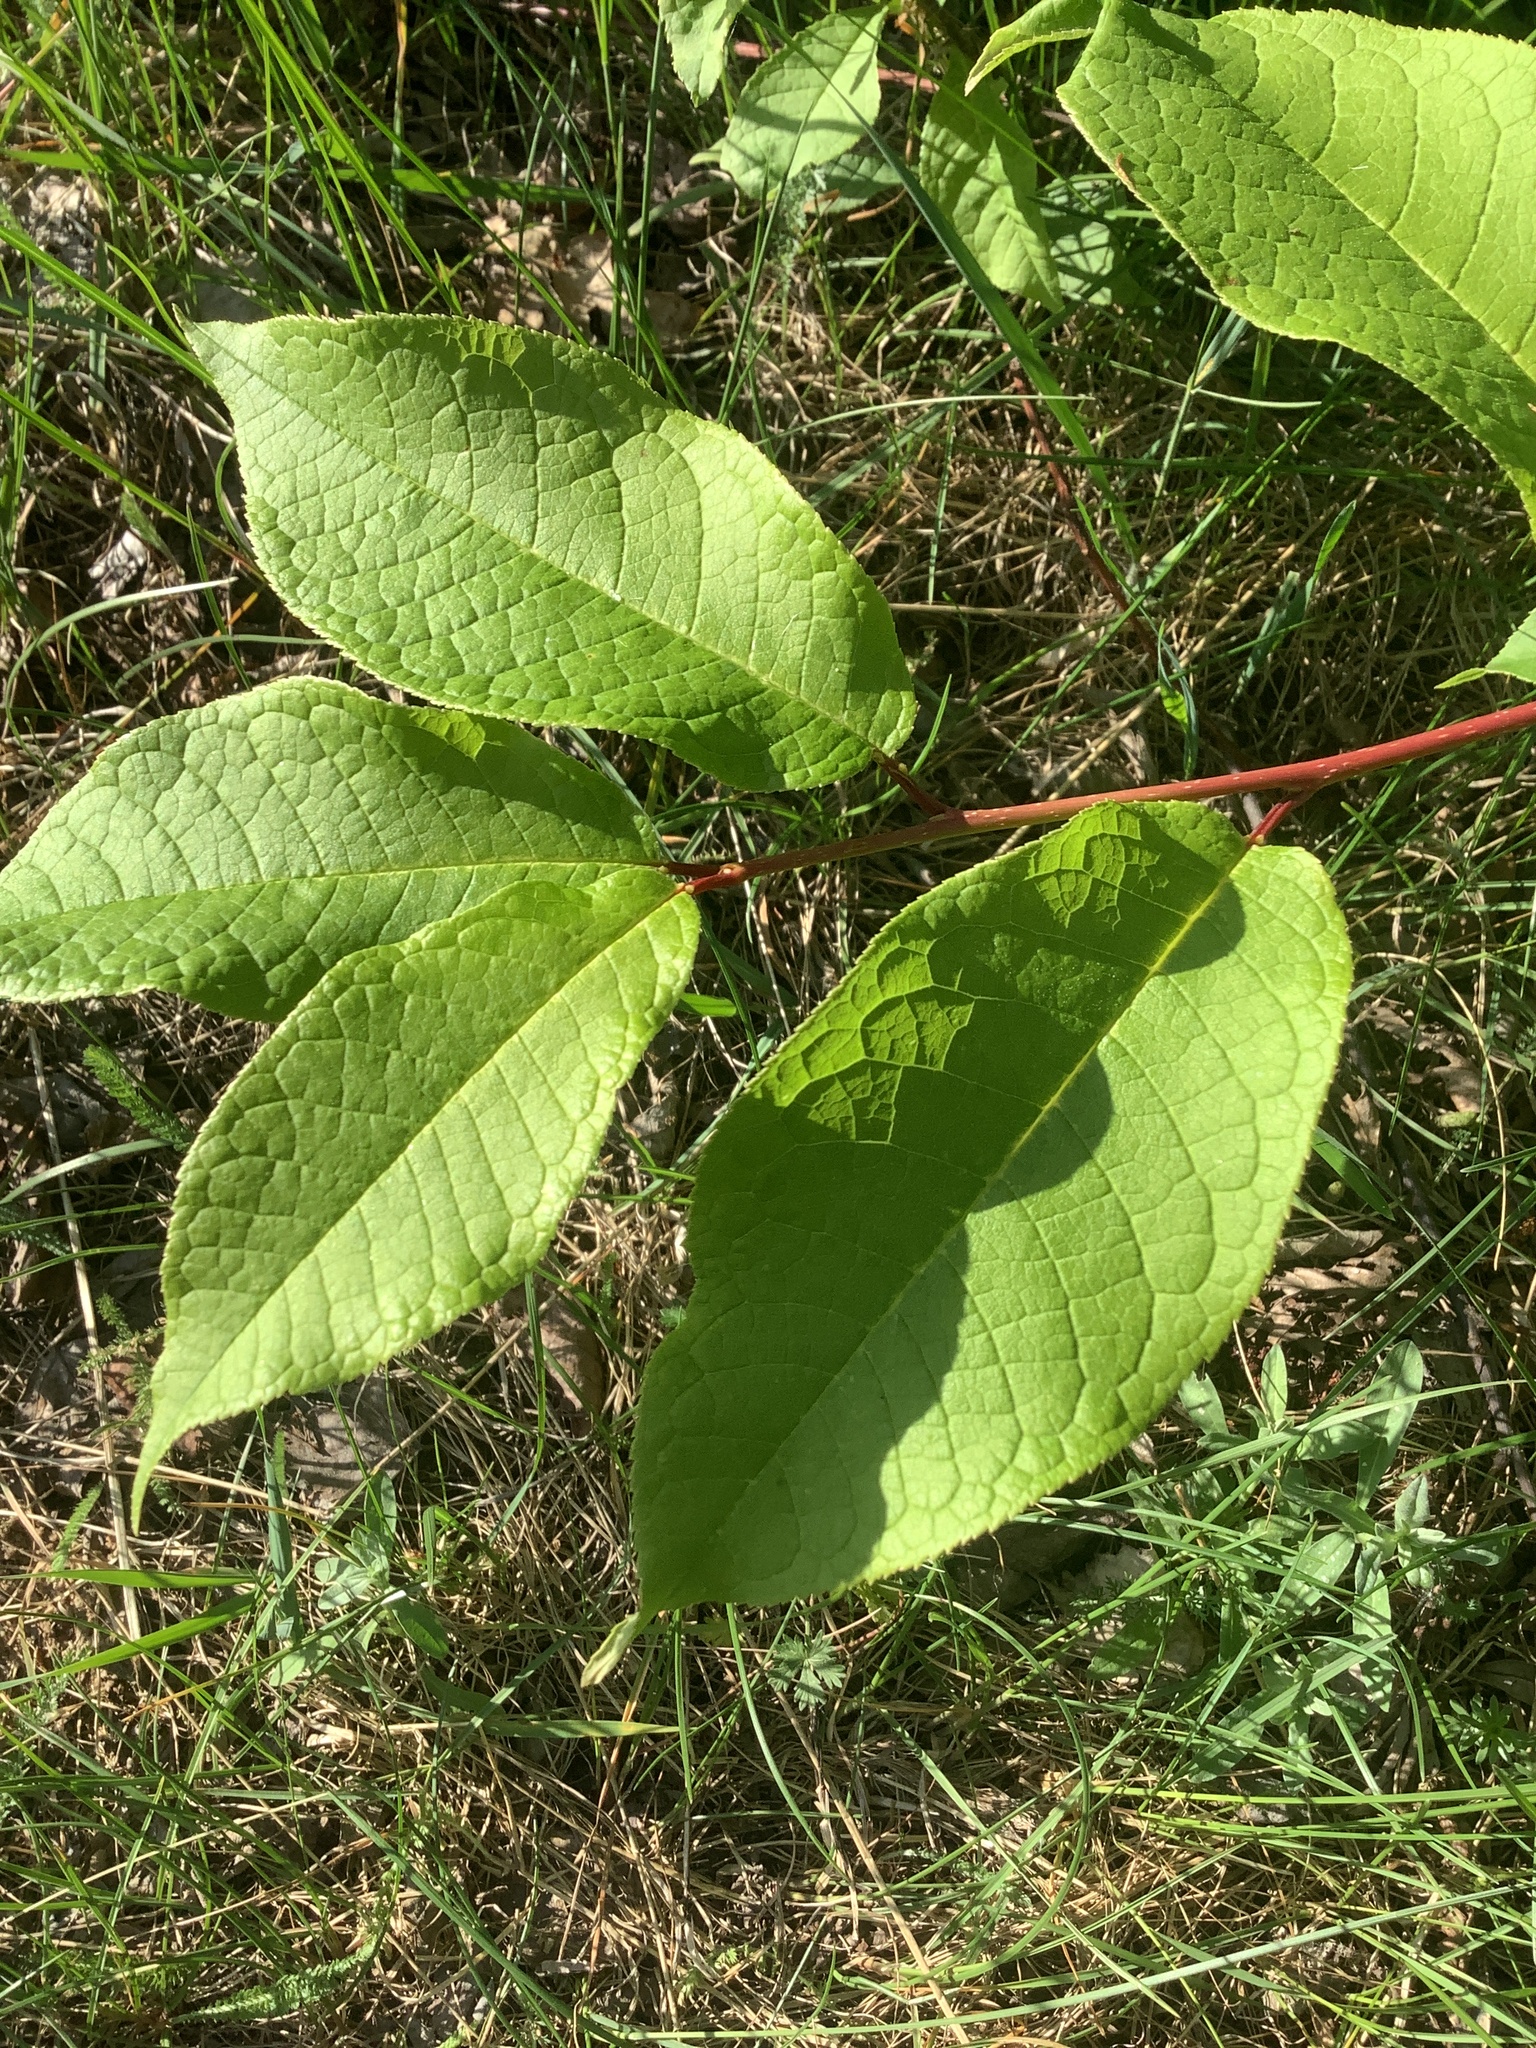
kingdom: Plantae
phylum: Tracheophyta
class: Magnoliopsida
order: Rosales
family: Rosaceae
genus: Prunus
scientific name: Prunus padus
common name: Bird cherry
